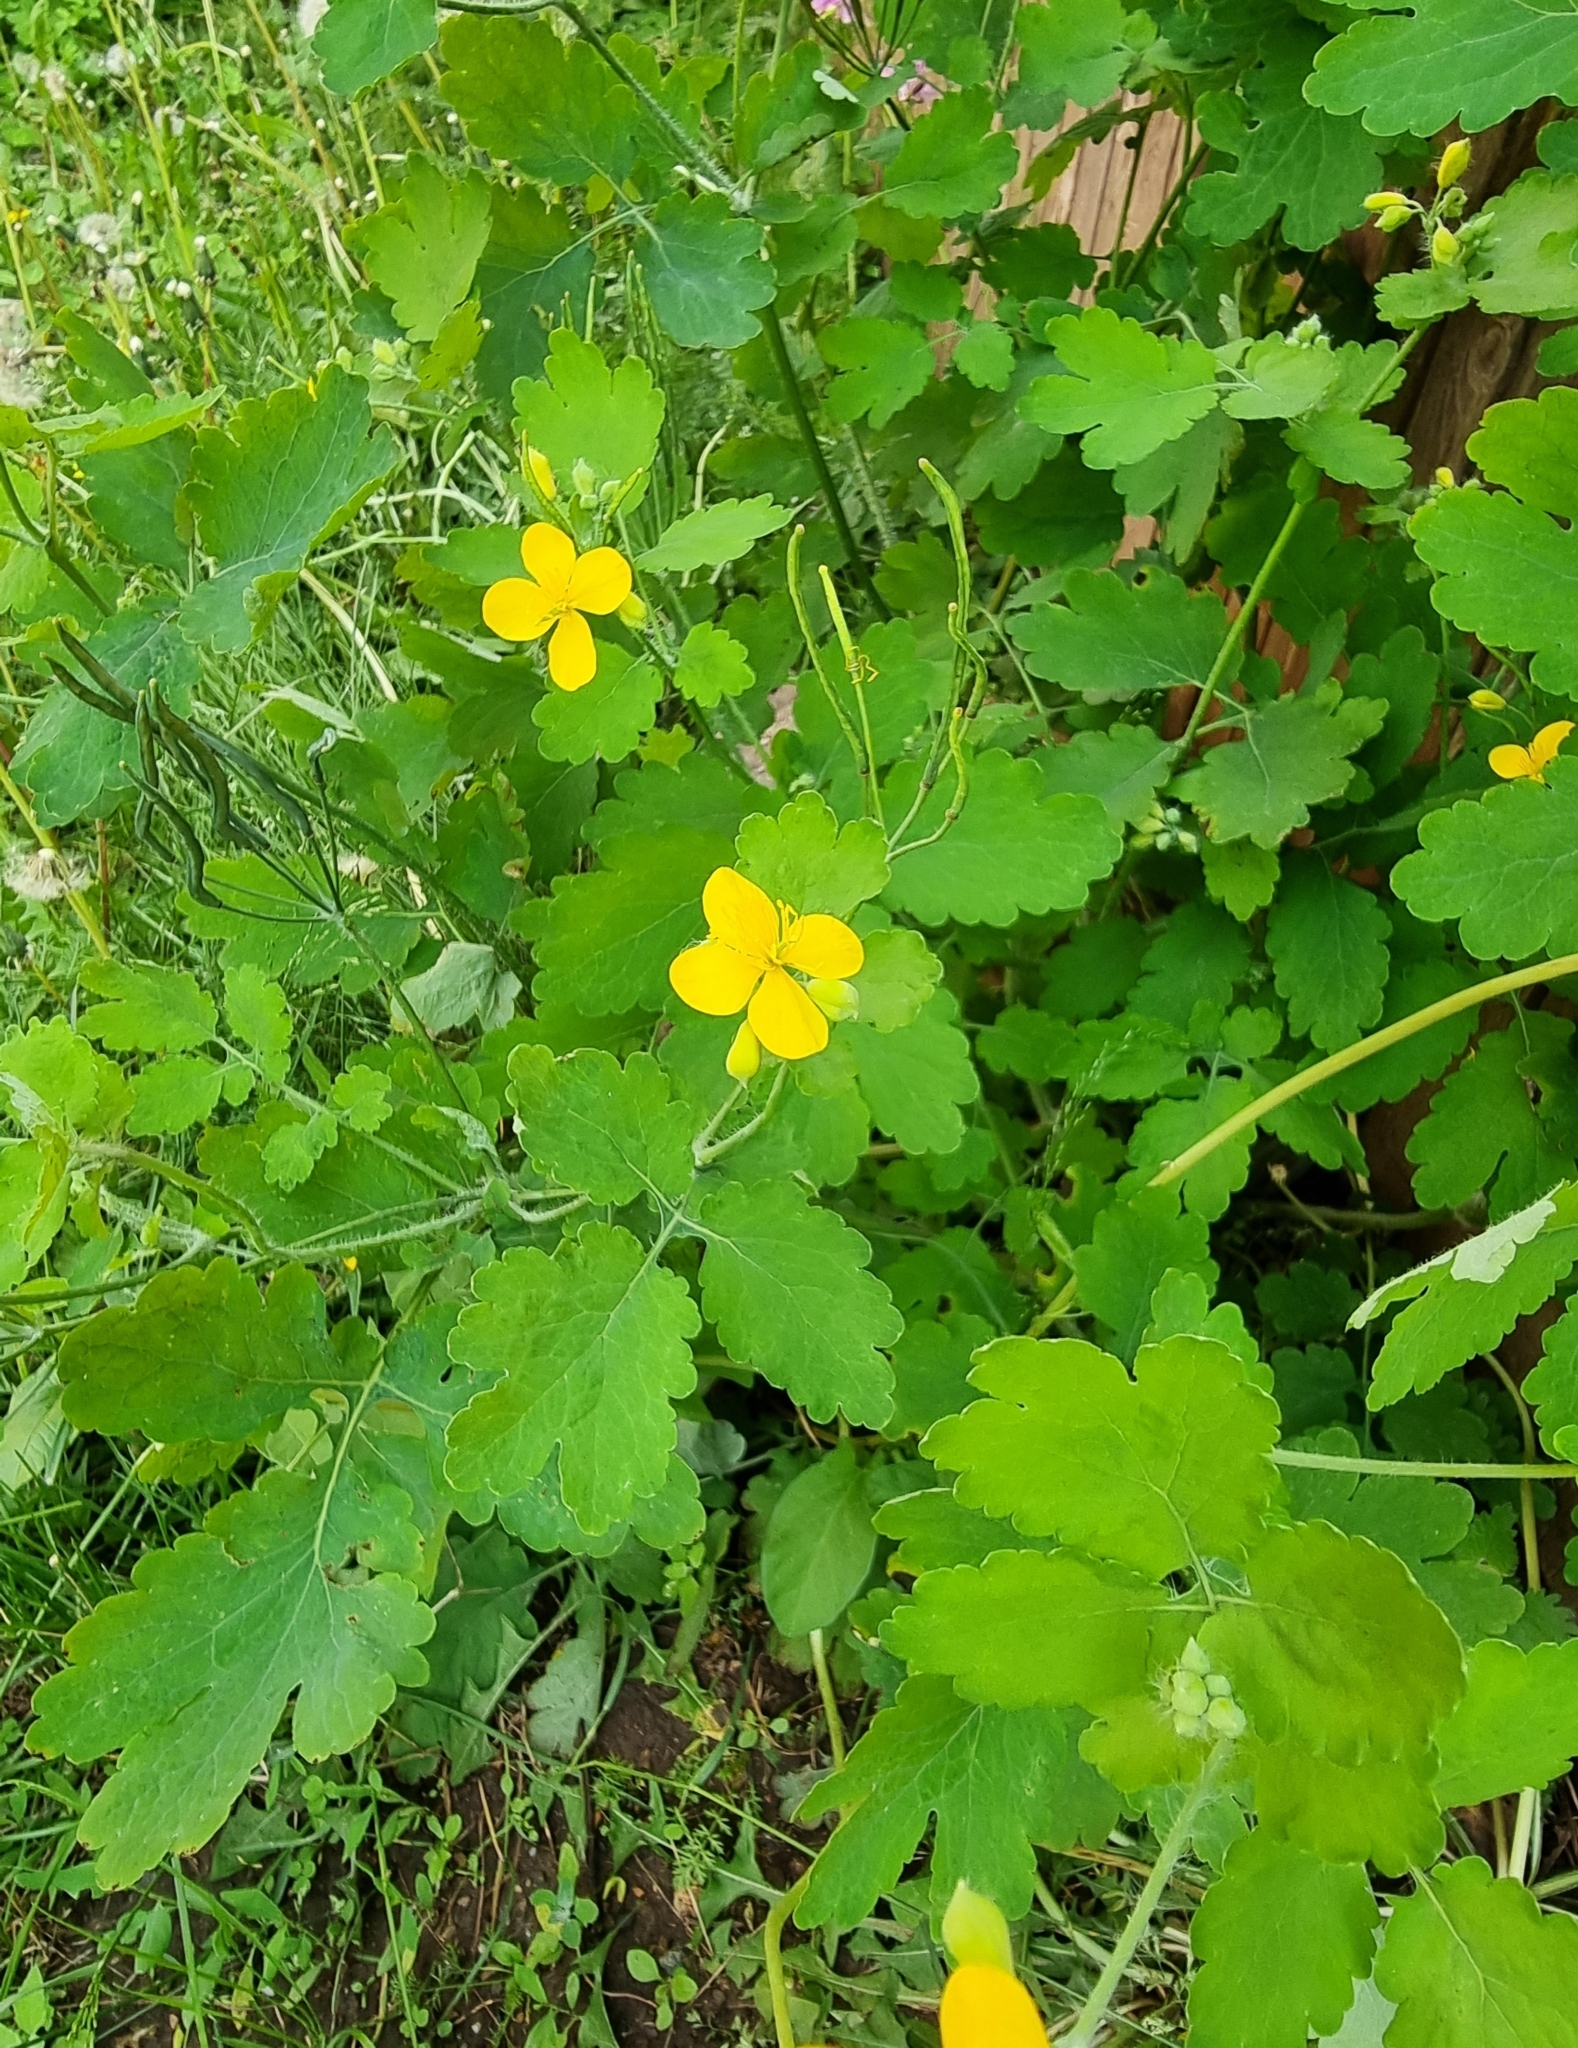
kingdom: Plantae
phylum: Tracheophyta
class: Magnoliopsida
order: Ranunculales
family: Papaveraceae
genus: Chelidonium
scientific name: Chelidonium majus
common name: Greater celandine
